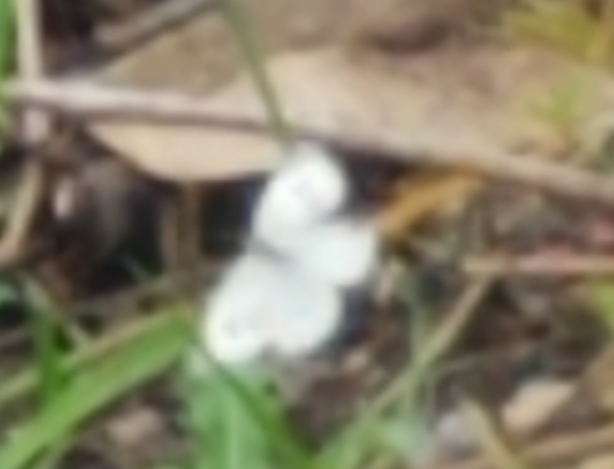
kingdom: Animalia
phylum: Arthropoda
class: Insecta
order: Lepidoptera
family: Pieridae
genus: Pieris
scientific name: Pieris rapae
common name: Small white
